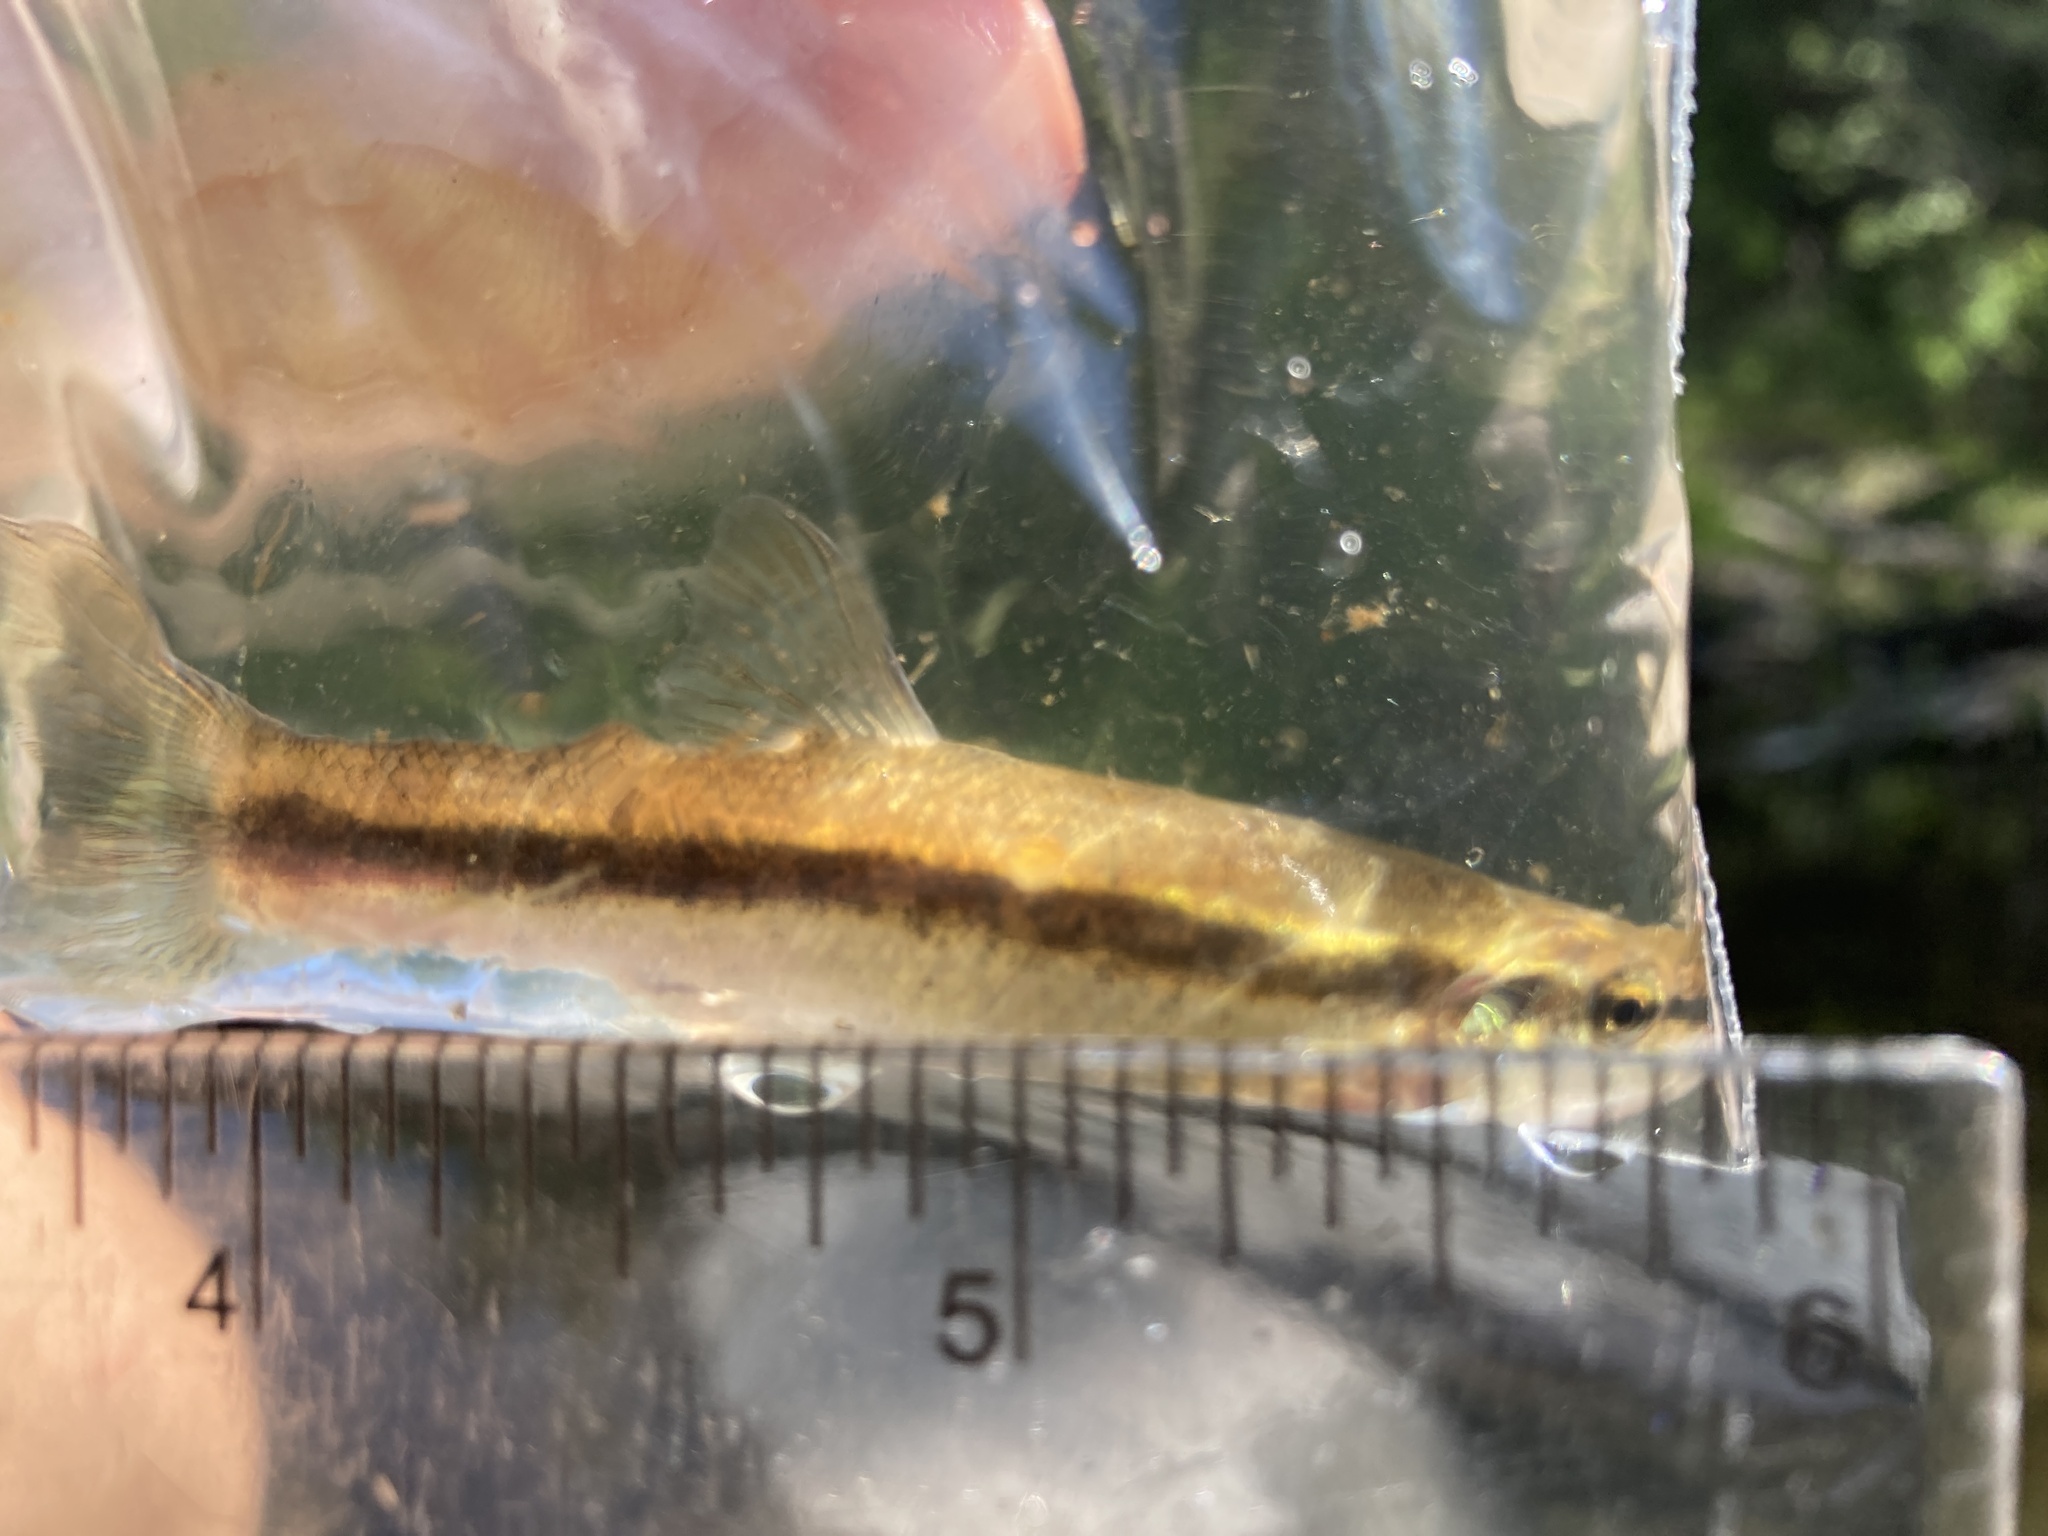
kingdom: Animalia
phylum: Chordata
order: Cypriniformes
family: Cyprinidae
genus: Rhinichthys
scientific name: Rhinichthys atratulus
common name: Eastern blacknose dace
